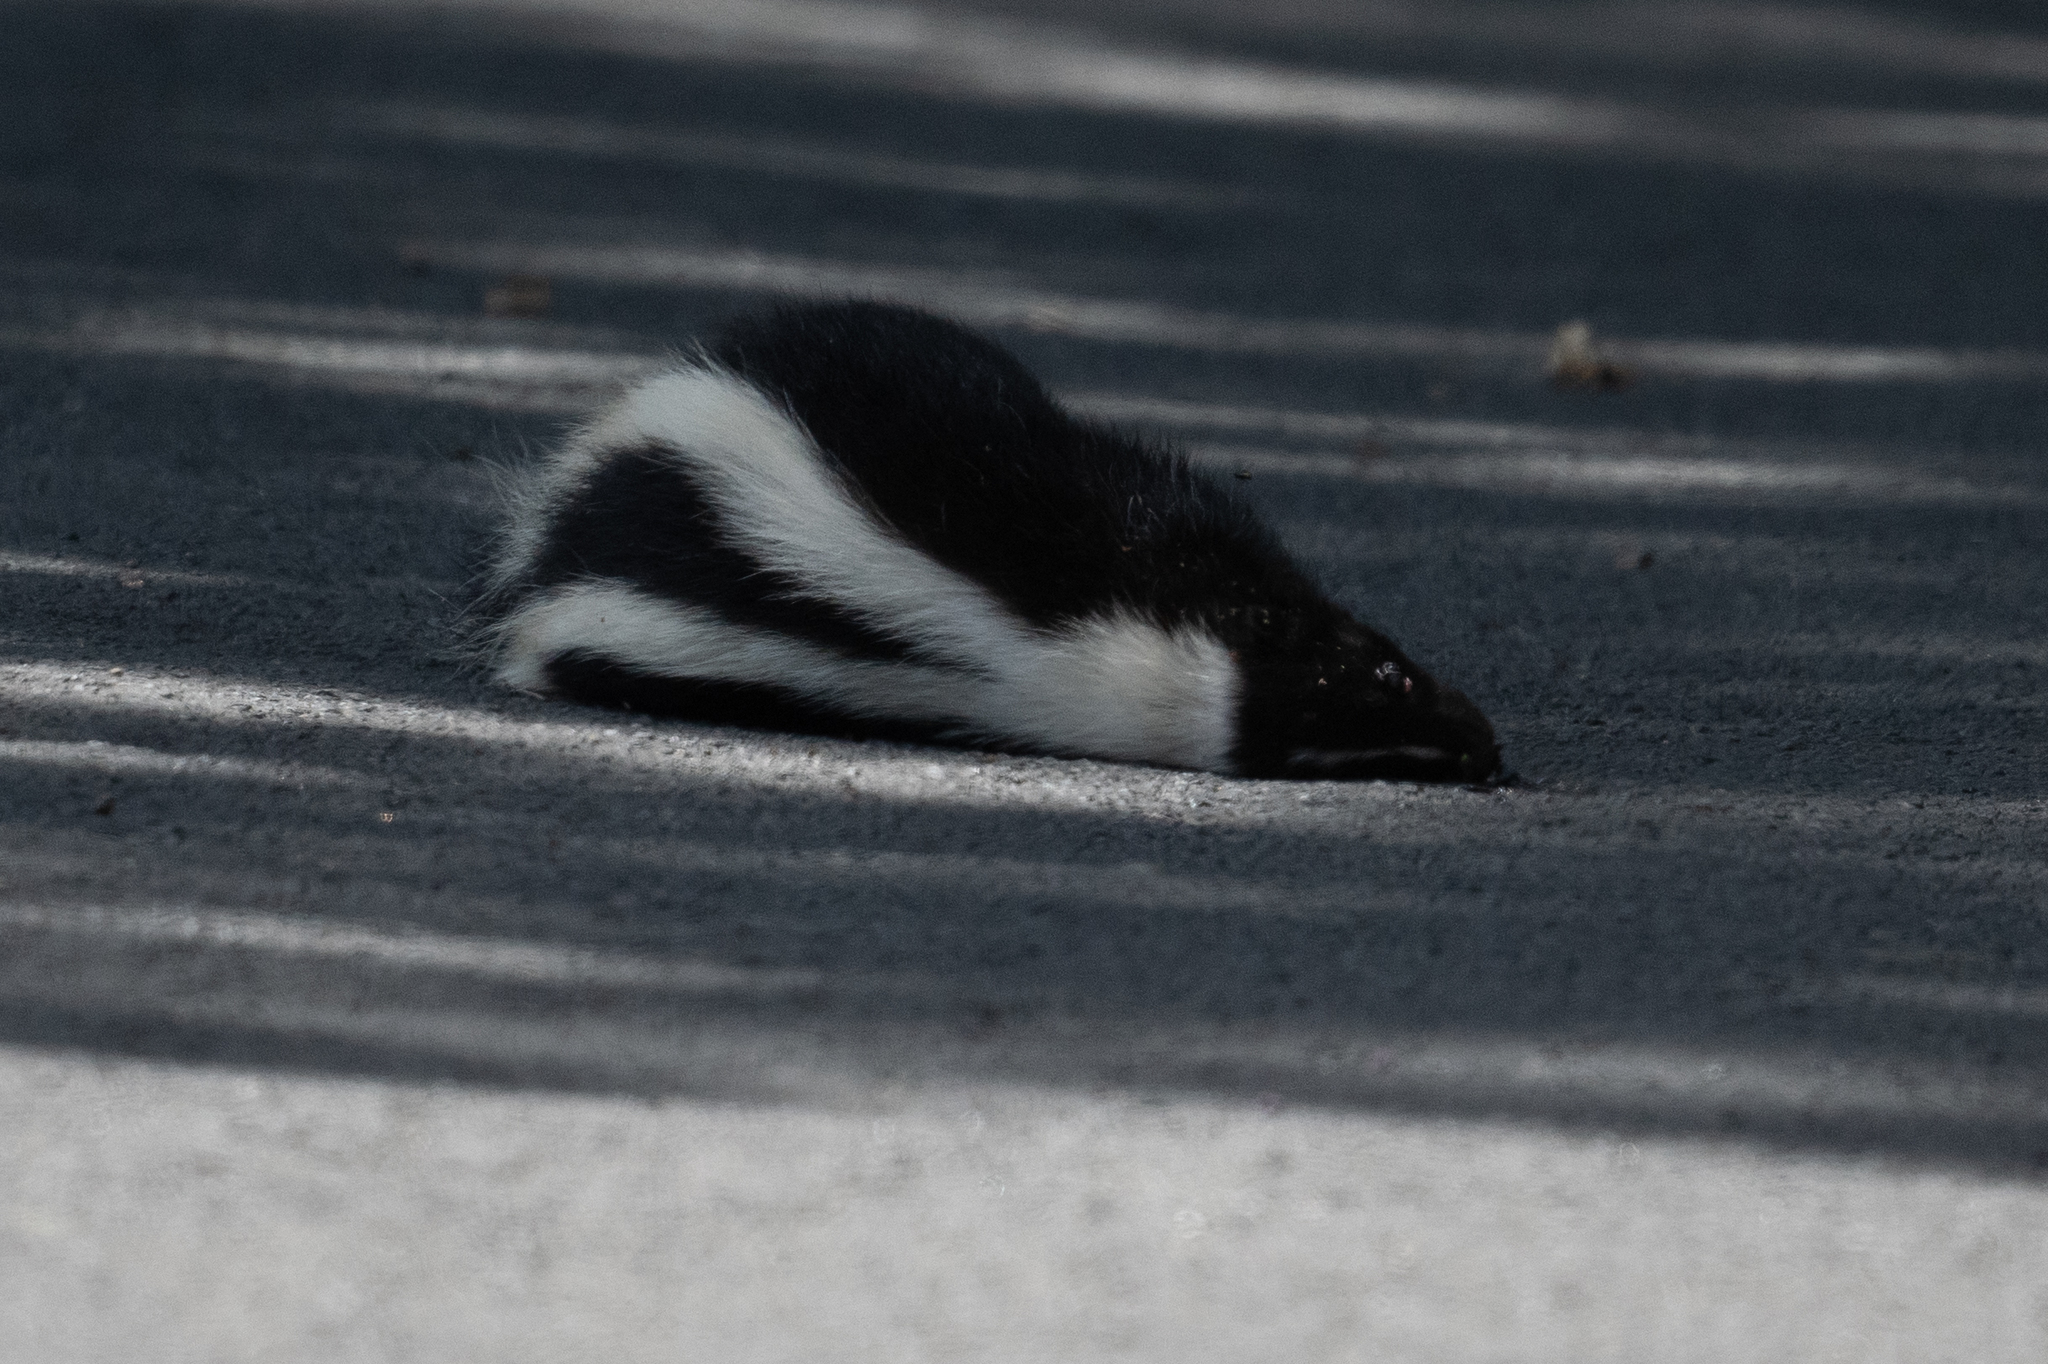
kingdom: Animalia
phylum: Chordata
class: Mammalia
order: Carnivora
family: Mephitidae
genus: Mephitis
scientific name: Mephitis mephitis
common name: Striped skunk
